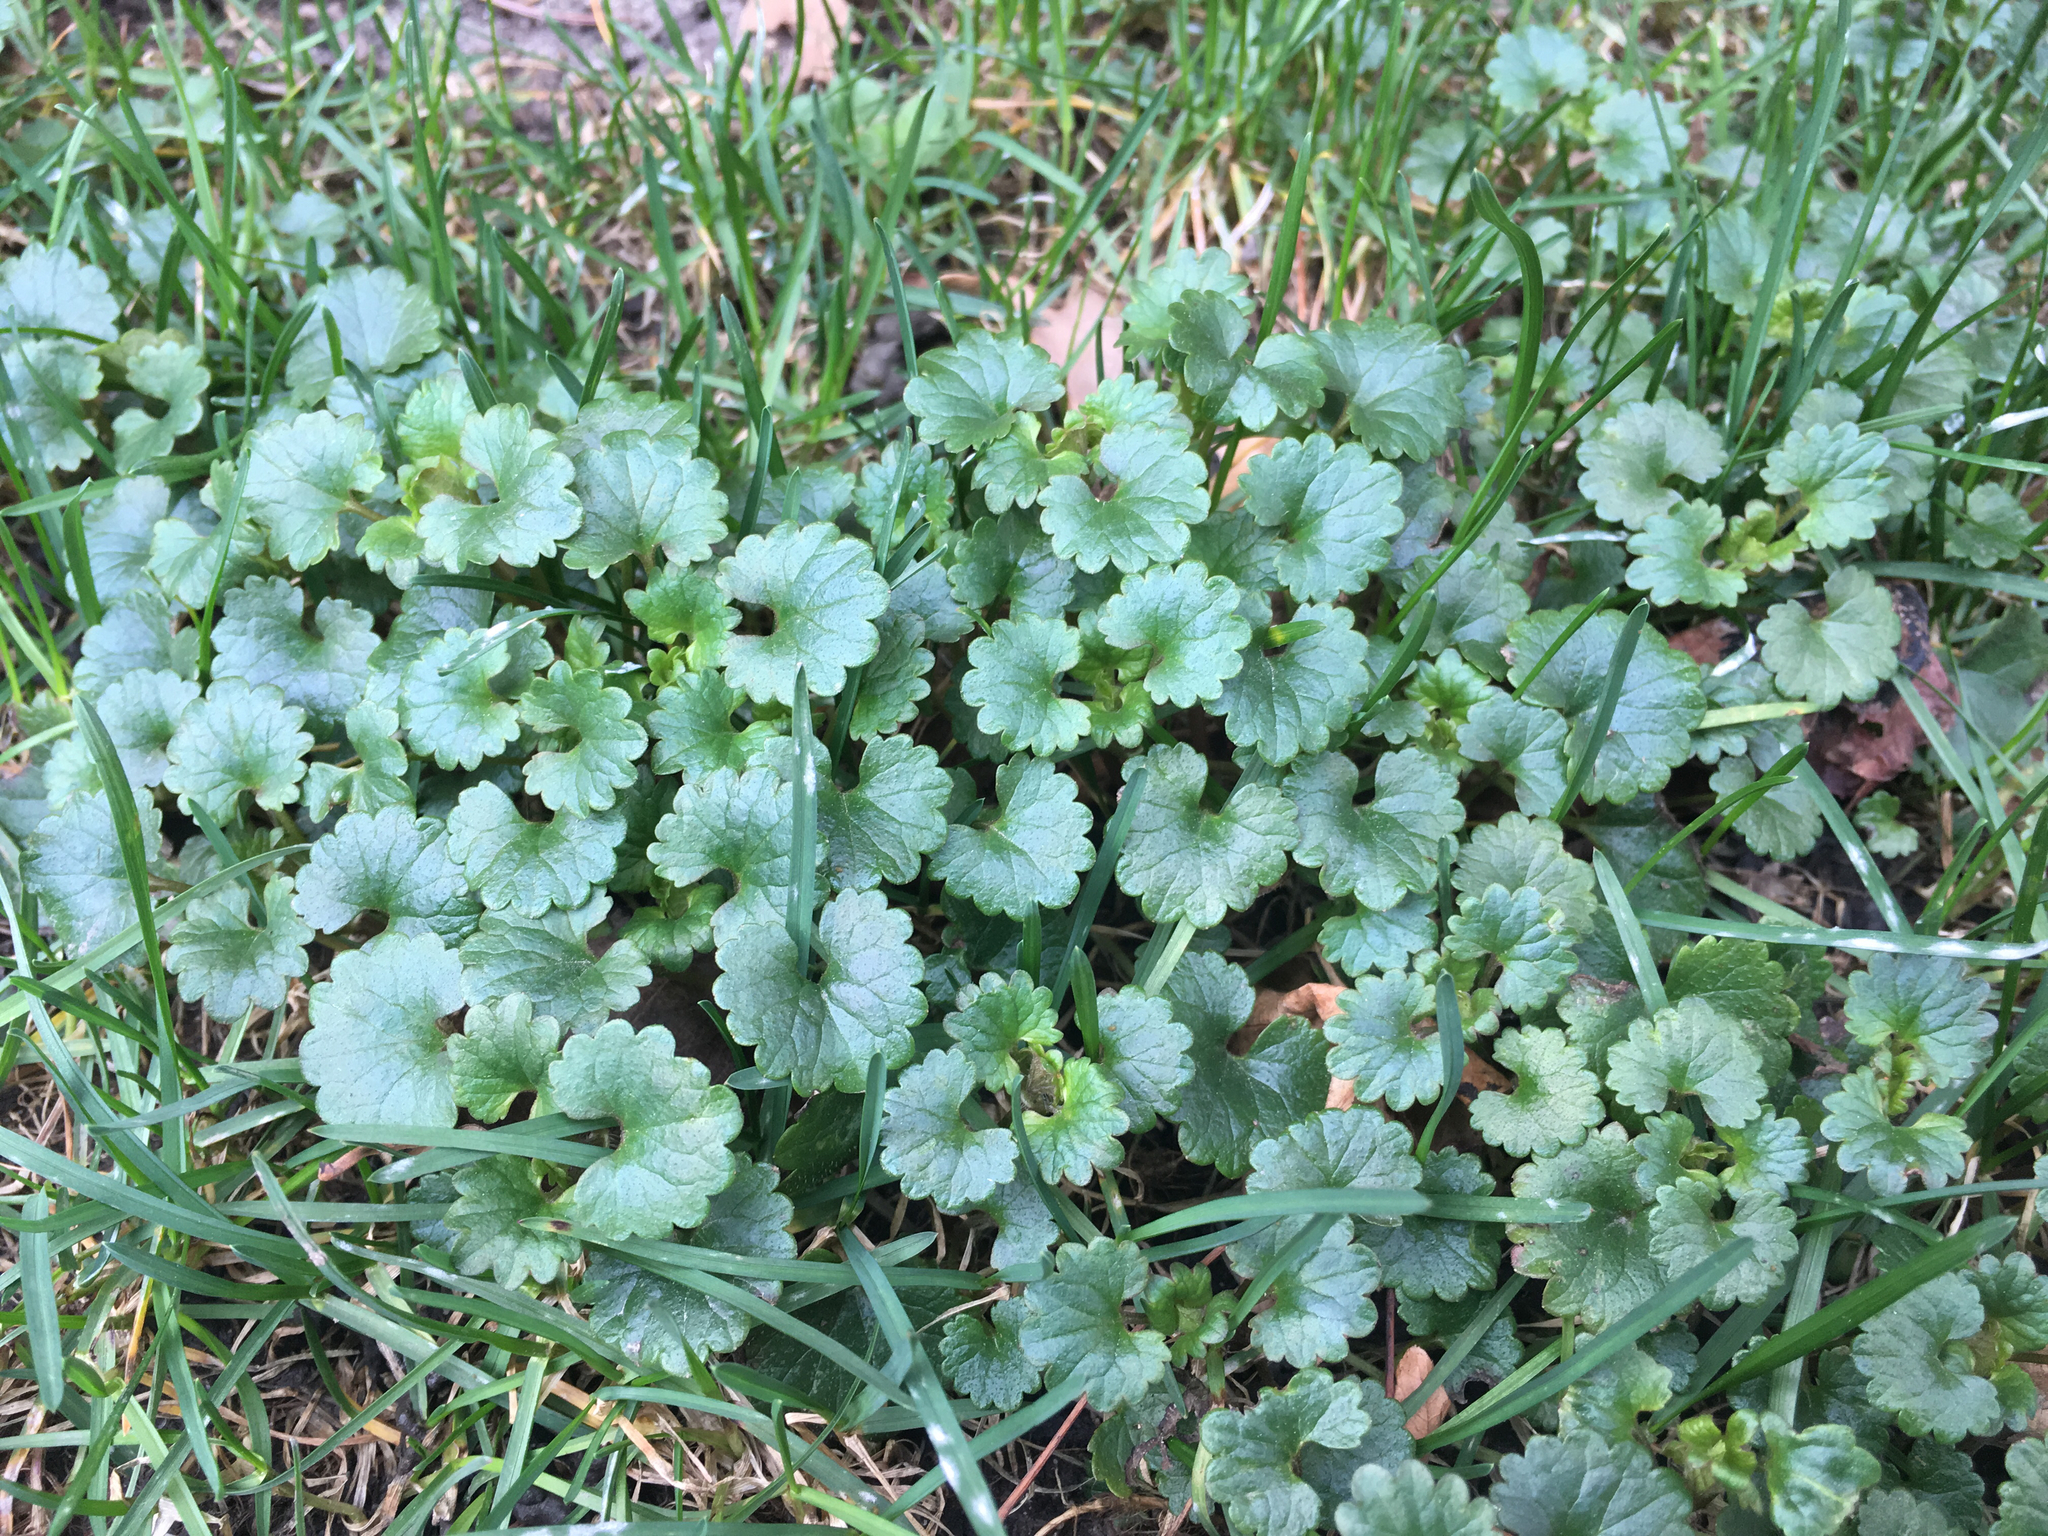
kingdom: Plantae
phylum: Tracheophyta
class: Magnoliopsida
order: Lamiales
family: Lamiaceae
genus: Glechoma
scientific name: Glechoma hederacea
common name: Ground ivy
